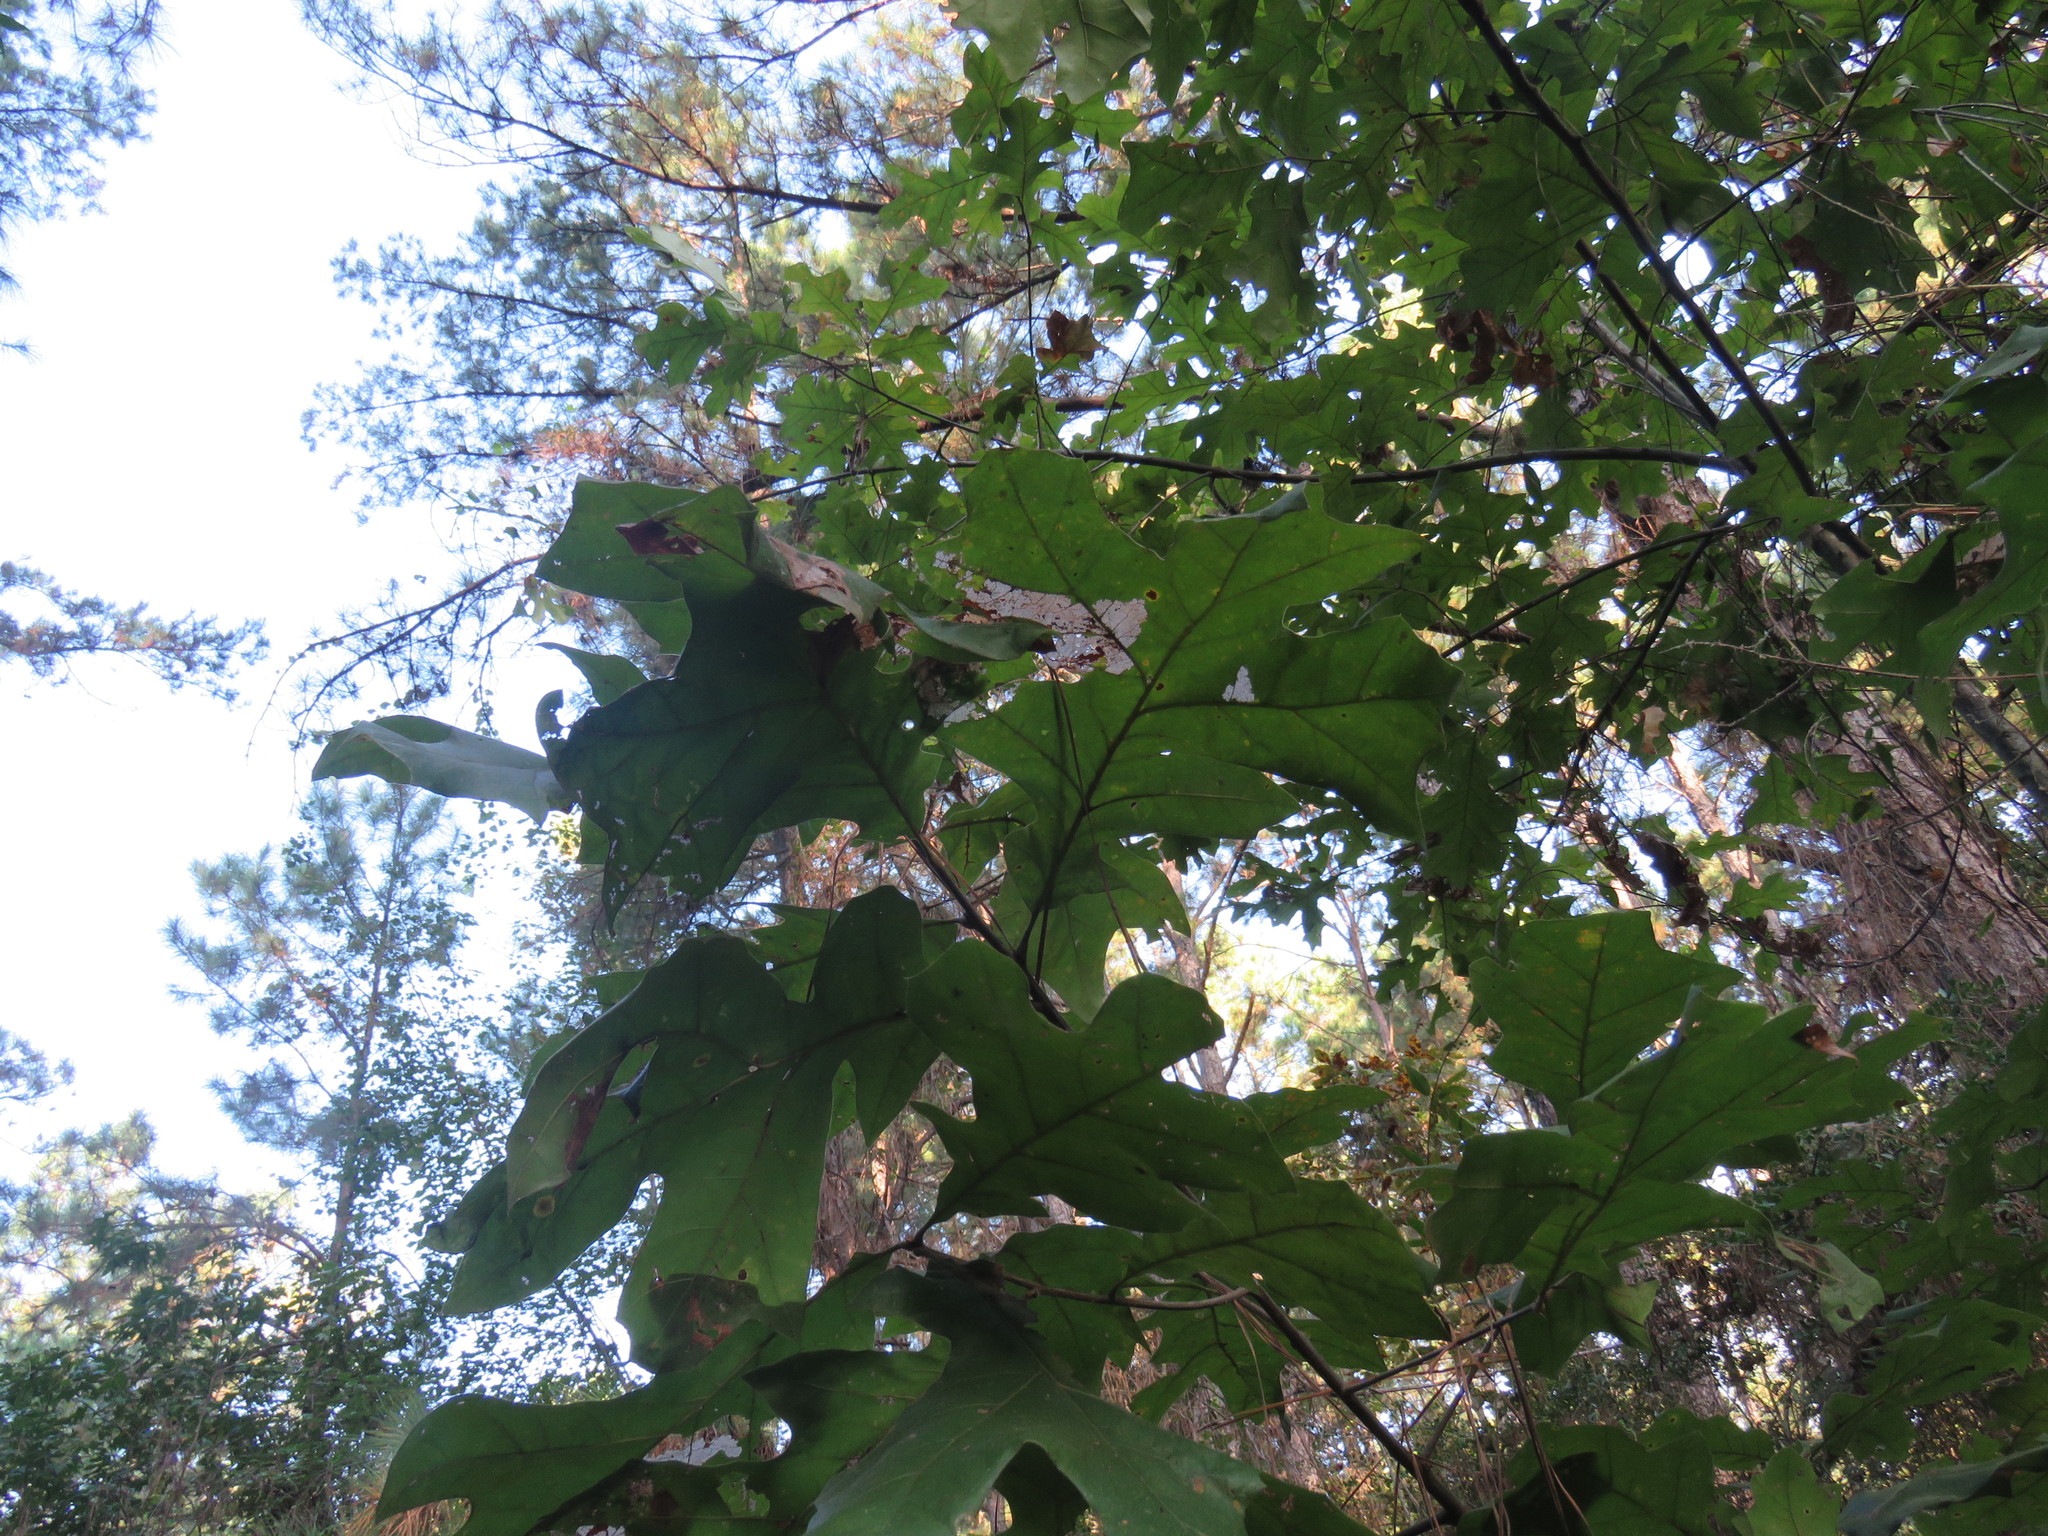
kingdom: Plantae
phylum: Tracheophyta
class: Magnoliopsida
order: Fagales
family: Fagaceae
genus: Quercus
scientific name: Quercus pagoda
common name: Cherrybark oak
